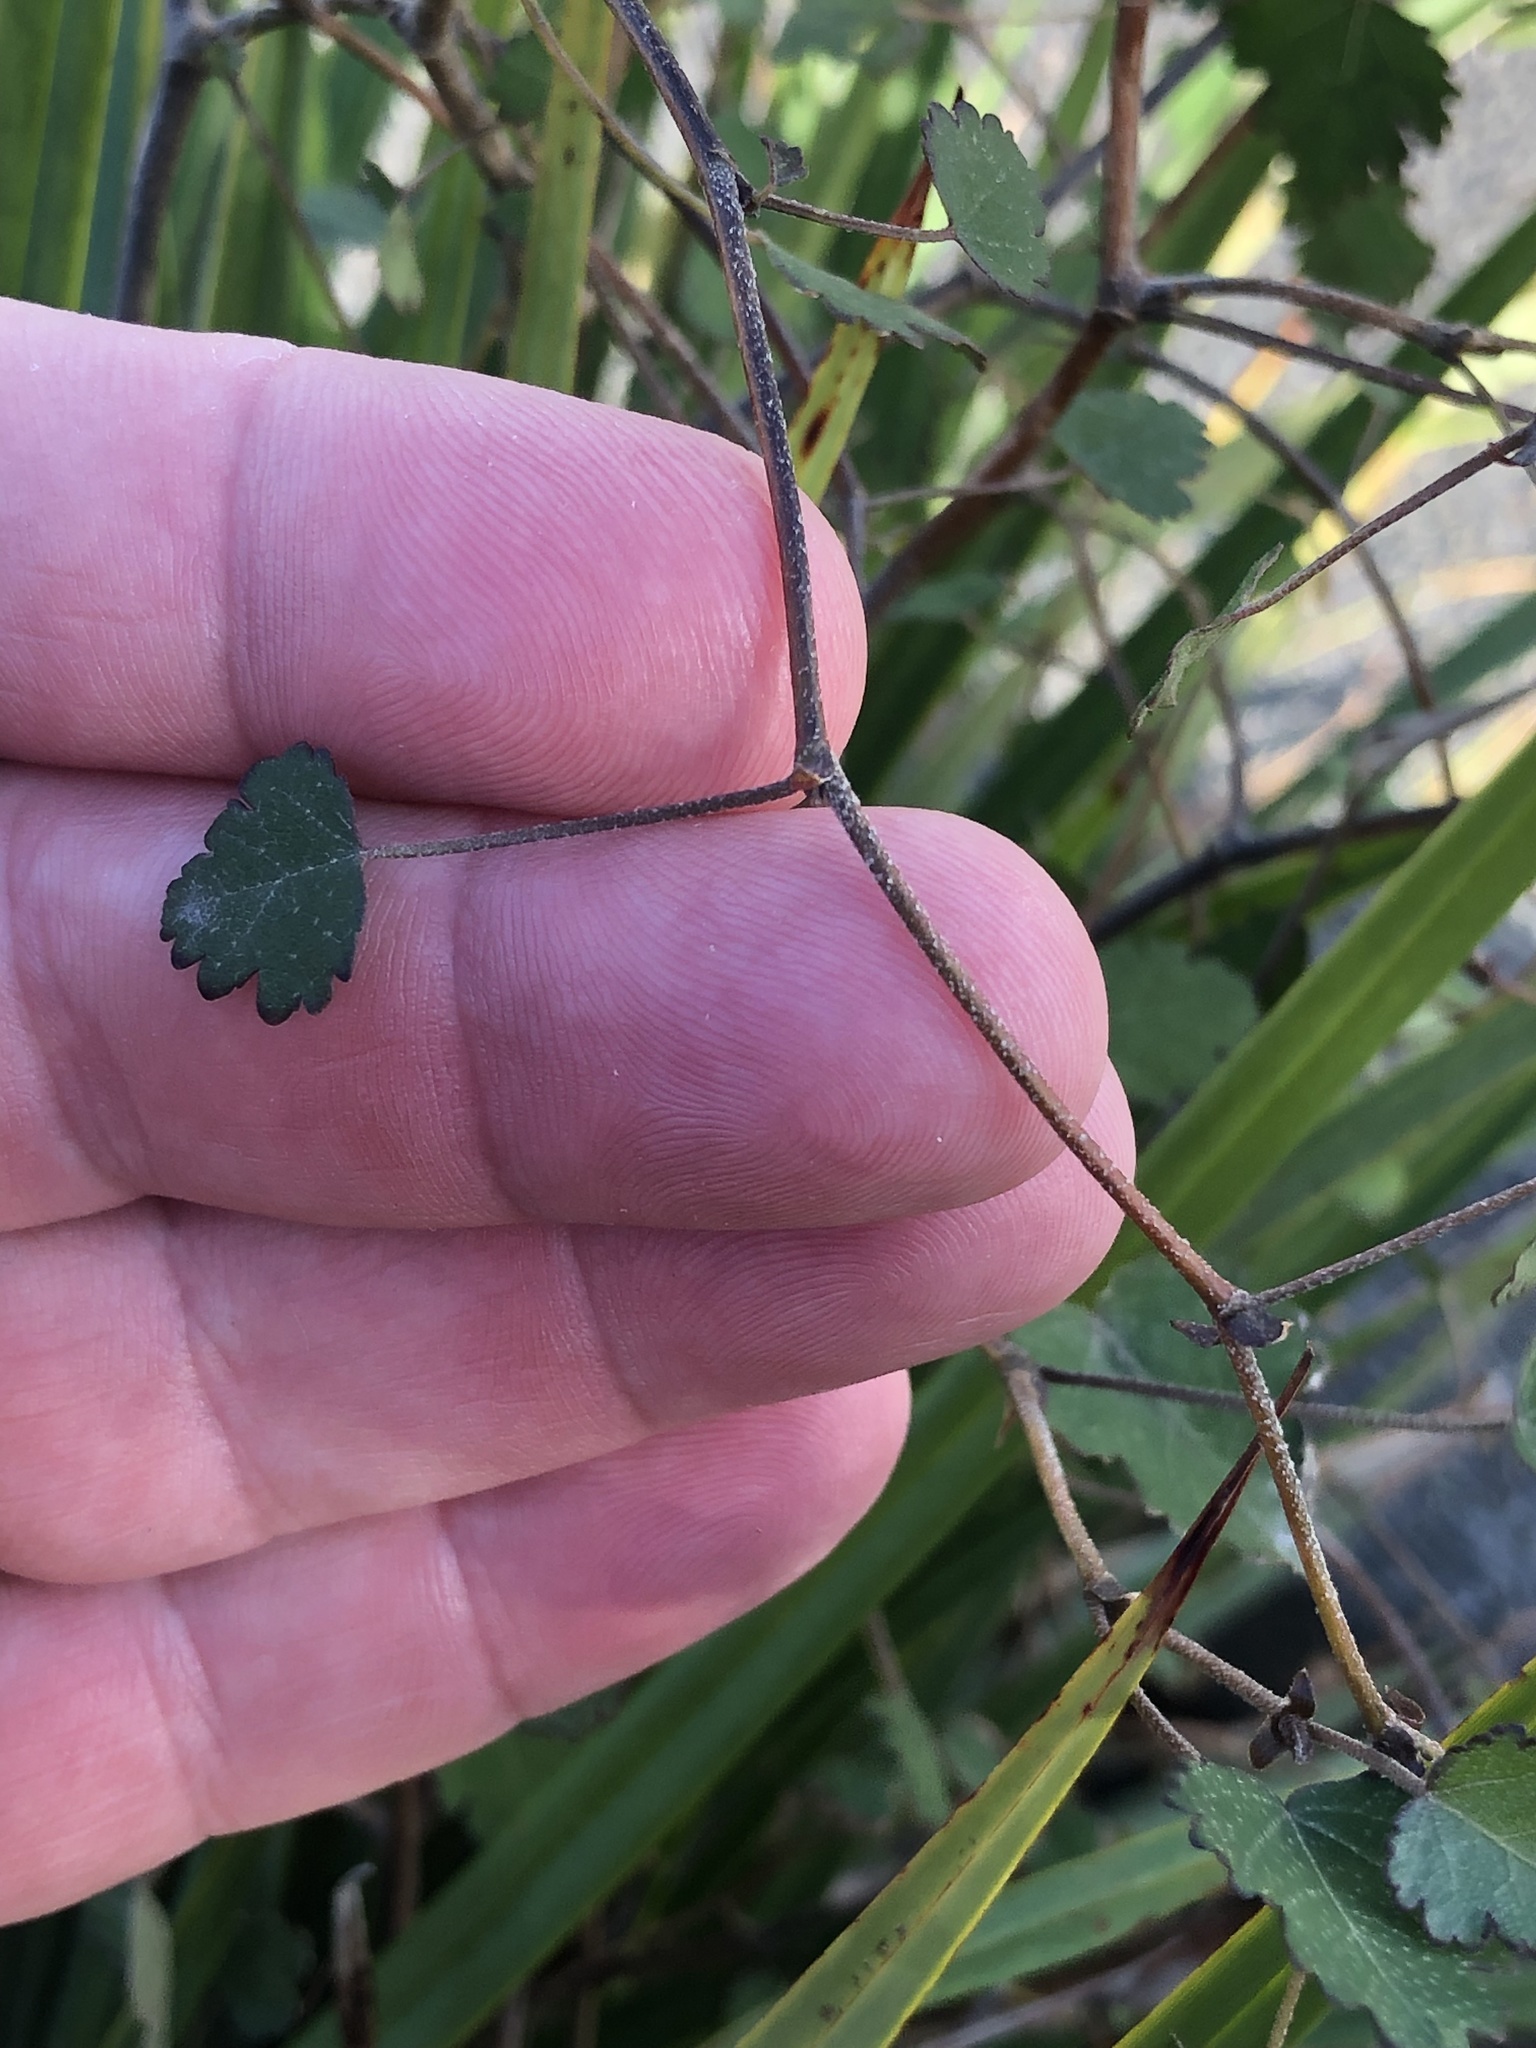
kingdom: Plantae
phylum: Tracheophyta
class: Magnoliopsida
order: Malvales
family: Malvaceae
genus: Plagianthus
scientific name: Plagianthus regius
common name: Manatu
